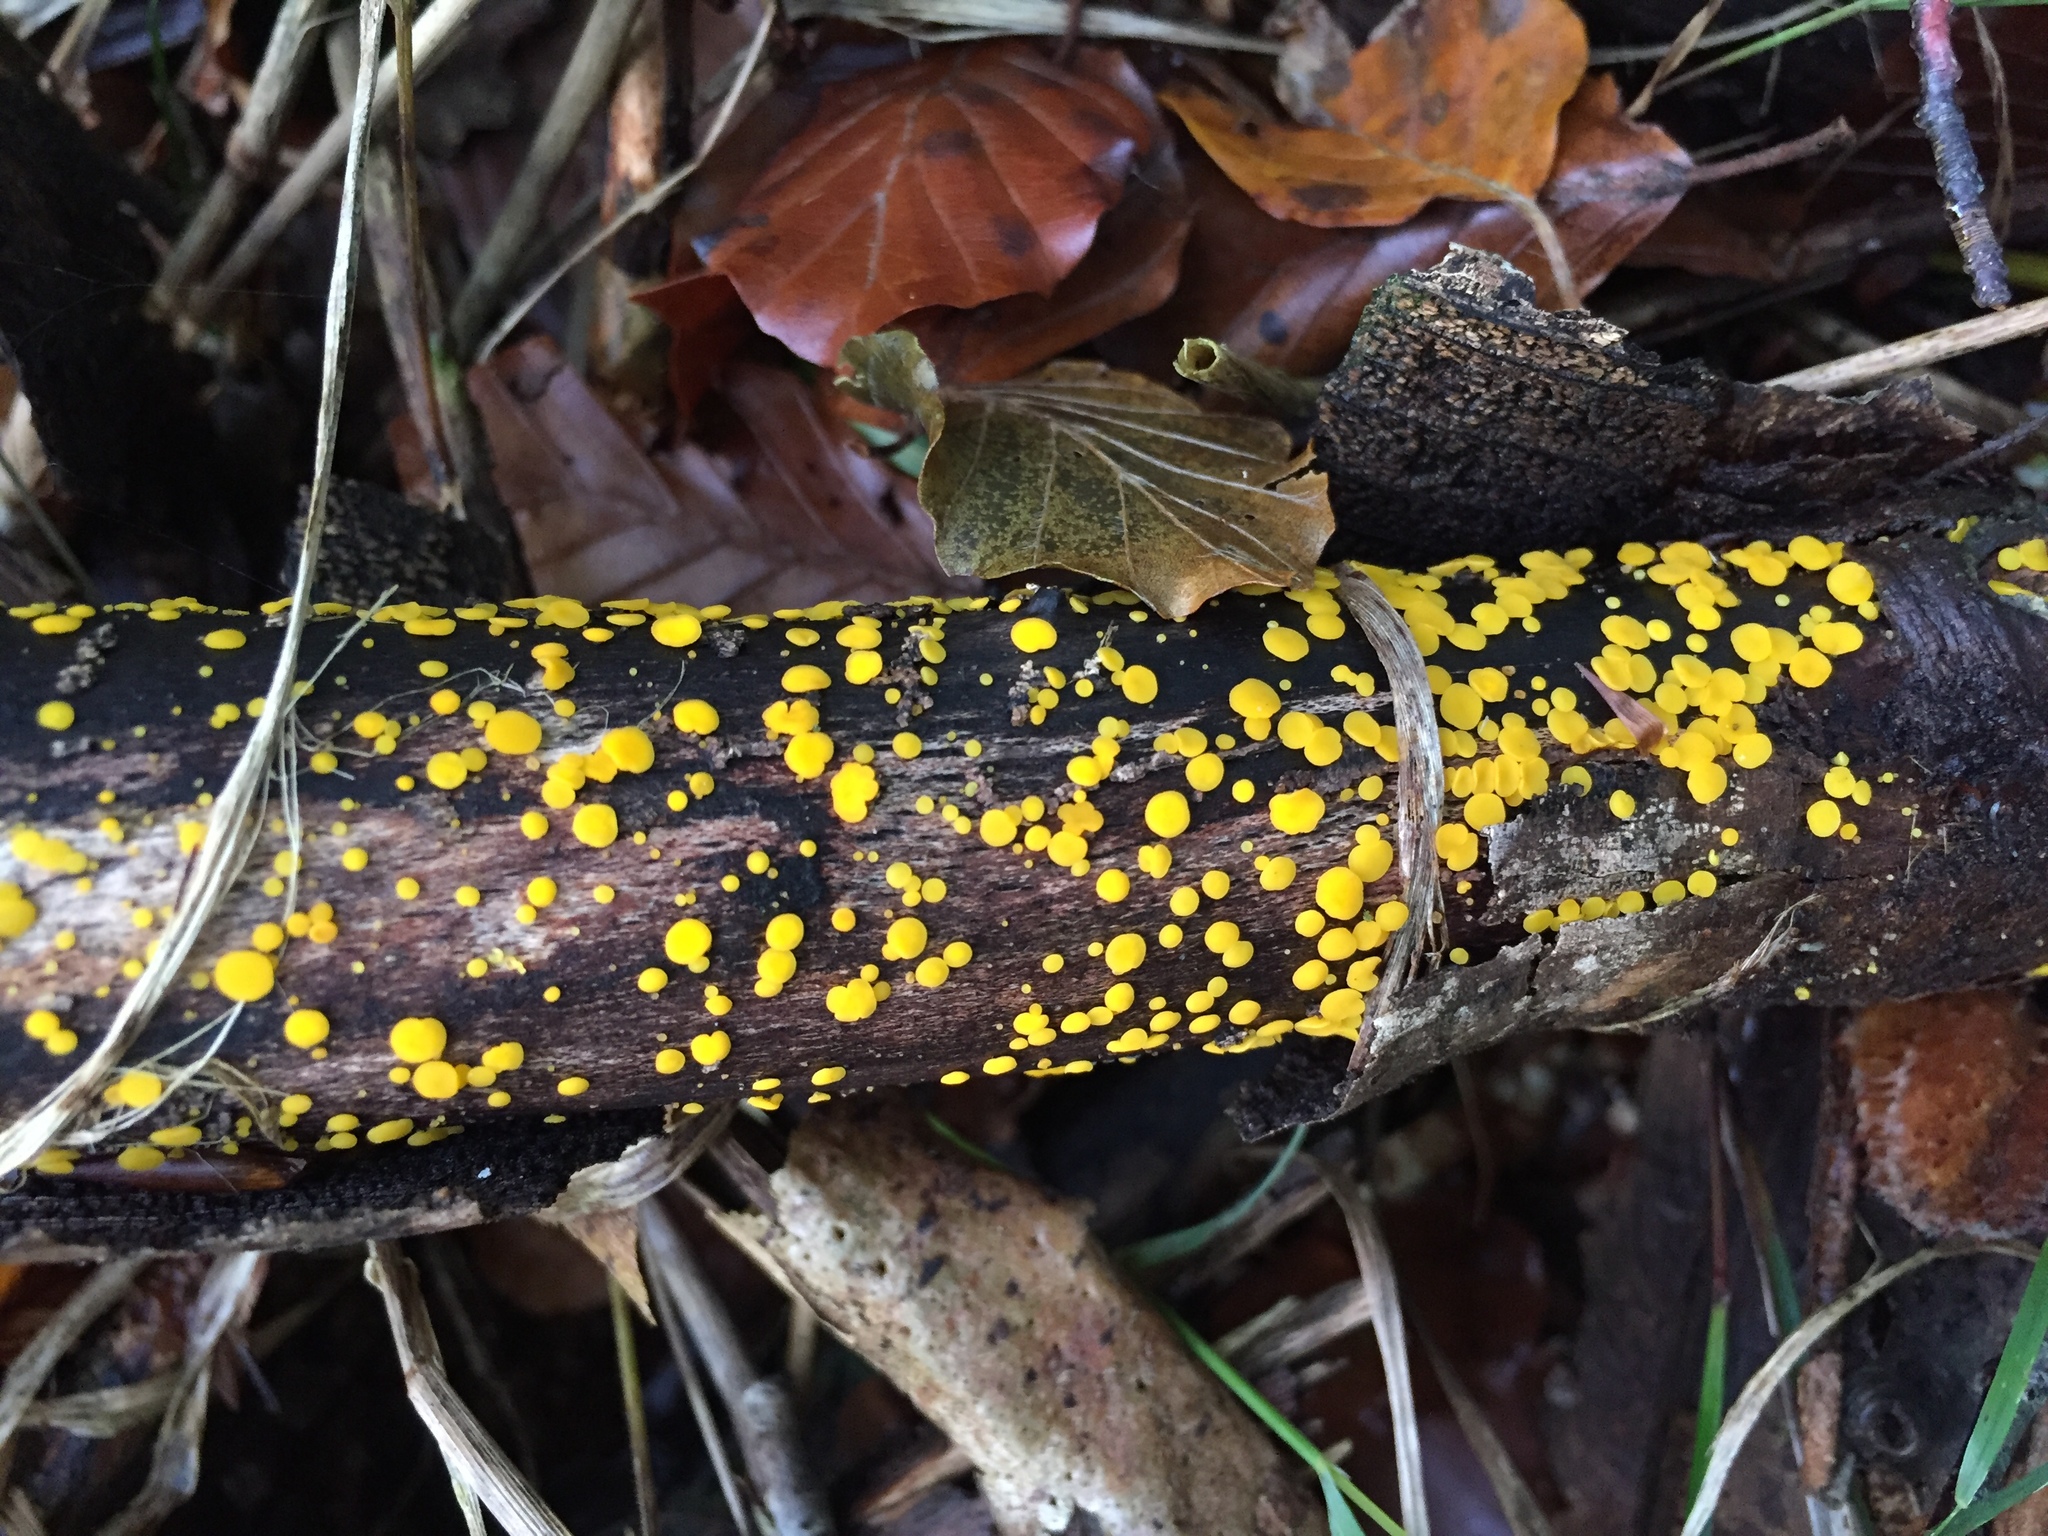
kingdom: Fungi
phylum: Ascomycota
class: Leotiomycetes
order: Helotiales
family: Pezizellaceae
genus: Calycina
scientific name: Calycina citrina
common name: Yellow fairy cups
